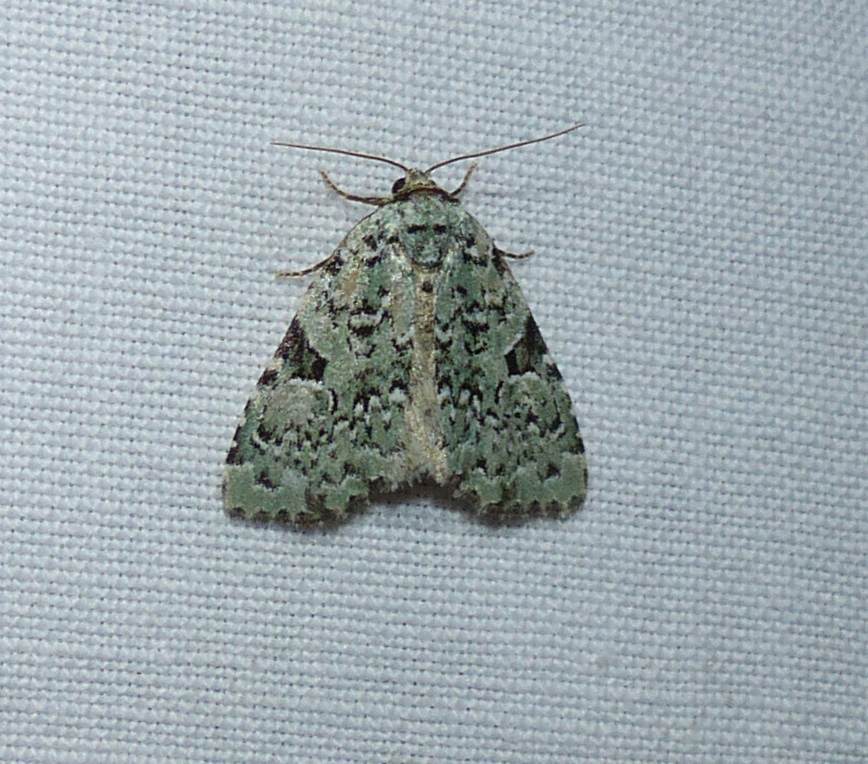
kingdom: Animalia
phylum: Arthropoda
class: Insecta
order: Lepidoptera
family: Noctuidae
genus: Leuconycta
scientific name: Leuconycta diphteroides
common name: Green leuconycta moth
